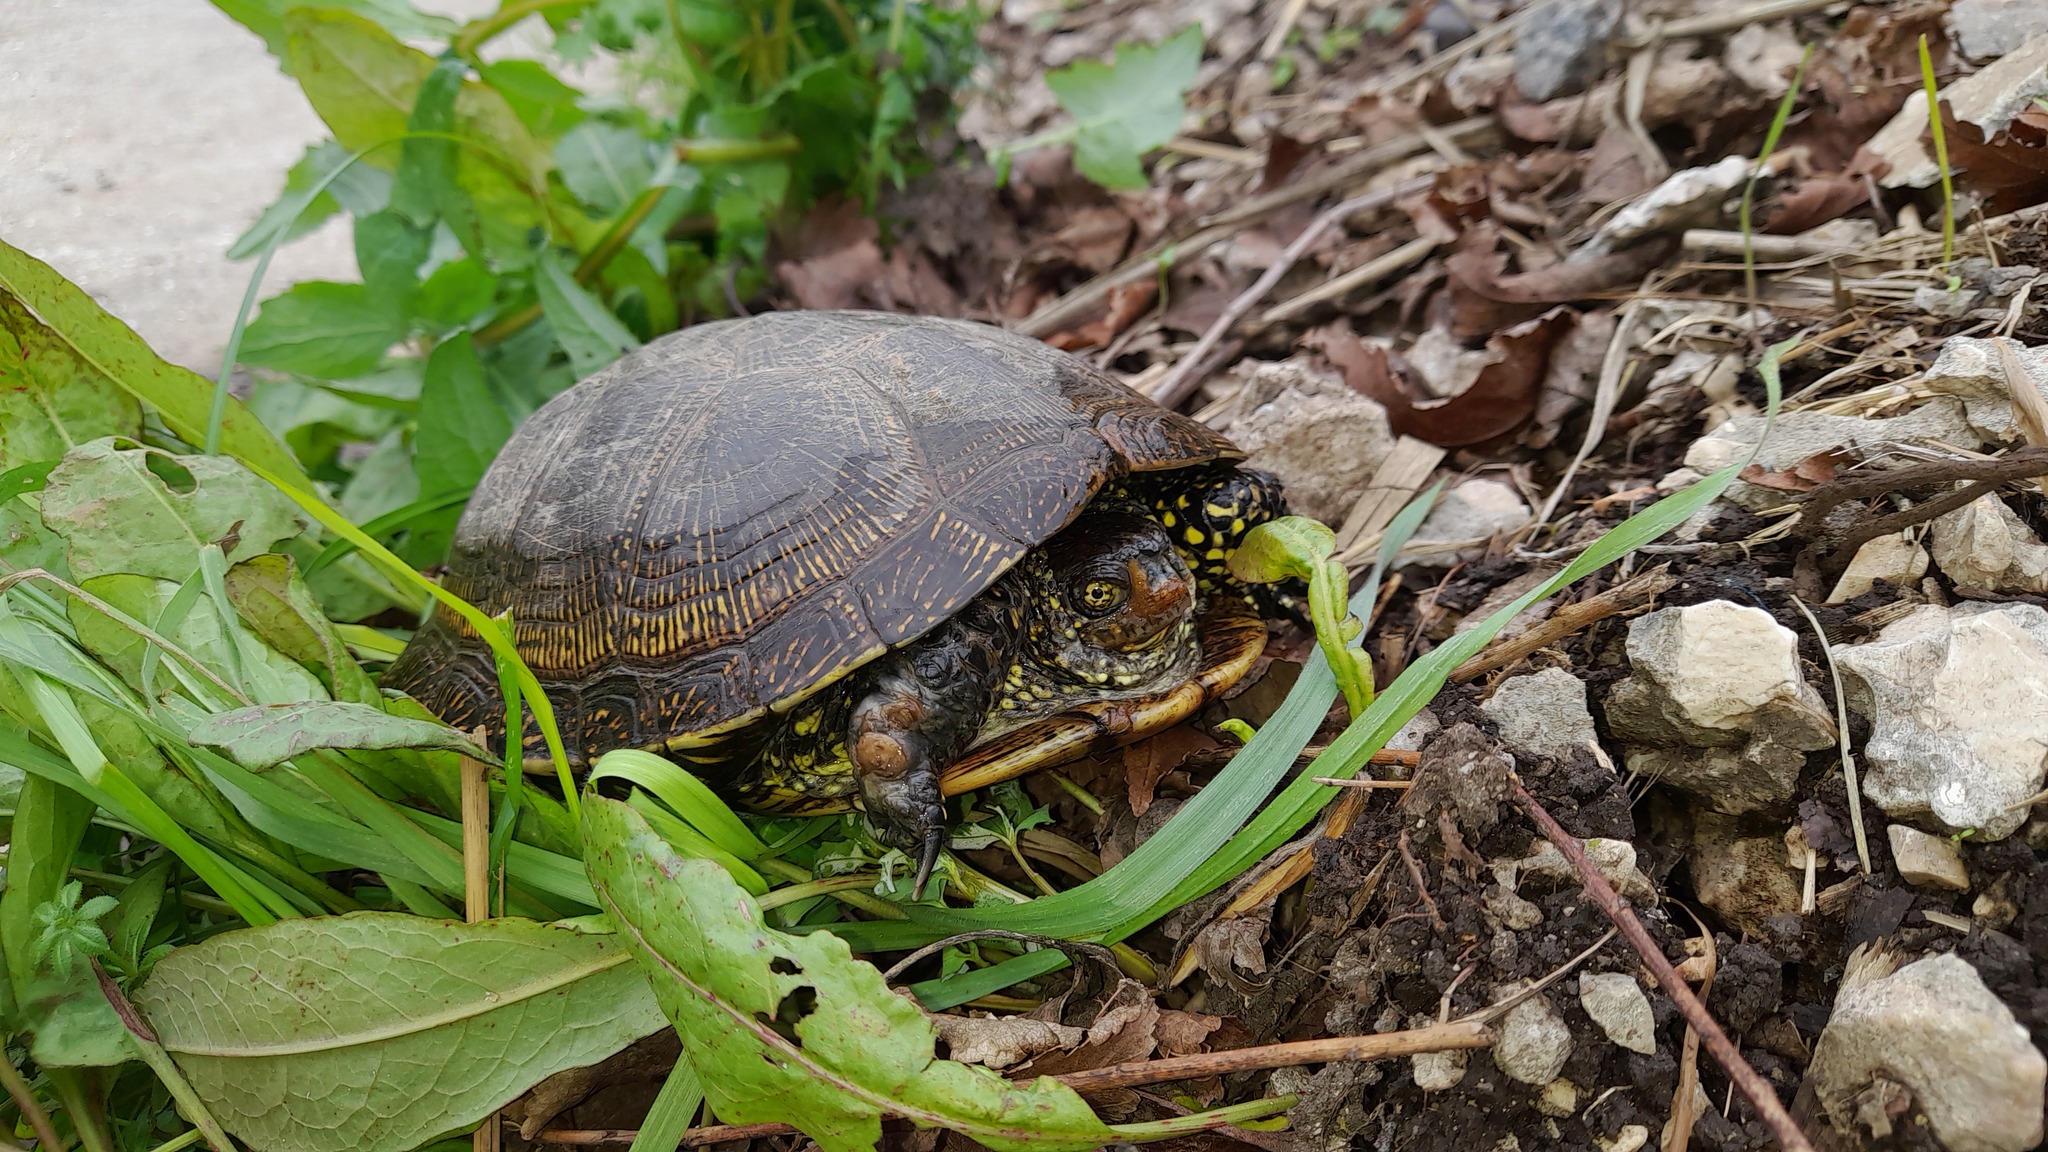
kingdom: Animalia
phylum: Chordata
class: Testudines
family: Emydidae
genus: Emys
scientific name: Emys orbicularis
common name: European pond turtle
